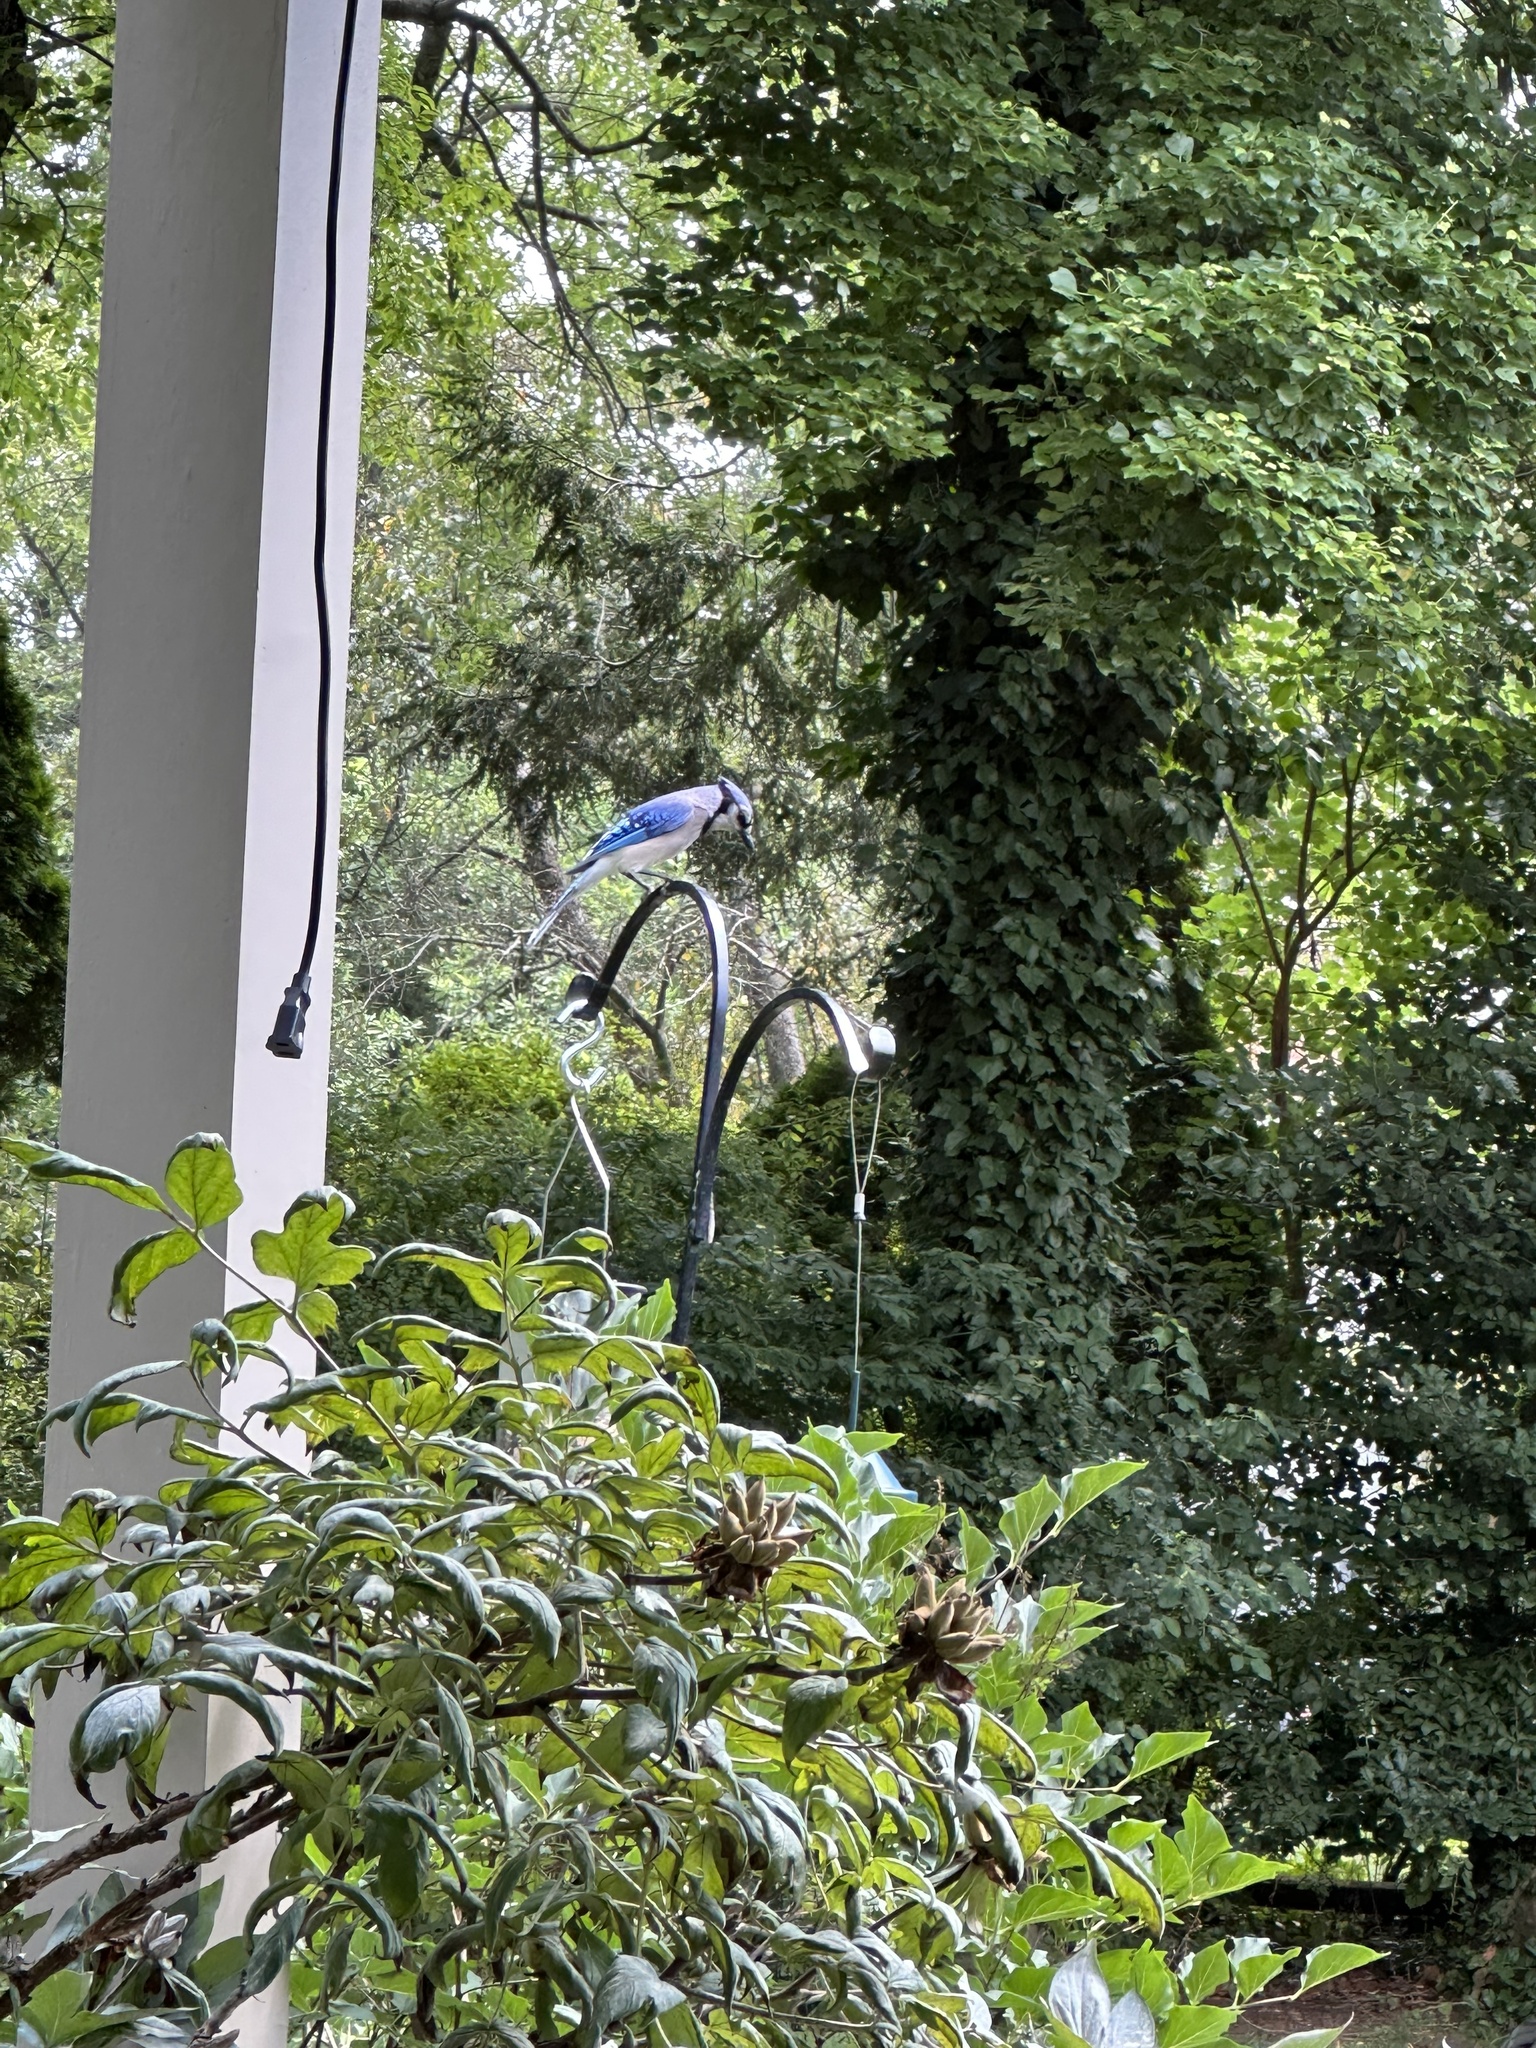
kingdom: Animalia
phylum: Chordata
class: Aves
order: Passeriformes
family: Corvidae
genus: Cyanocitta
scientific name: Cyanocitta cristata
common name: Blue jay
